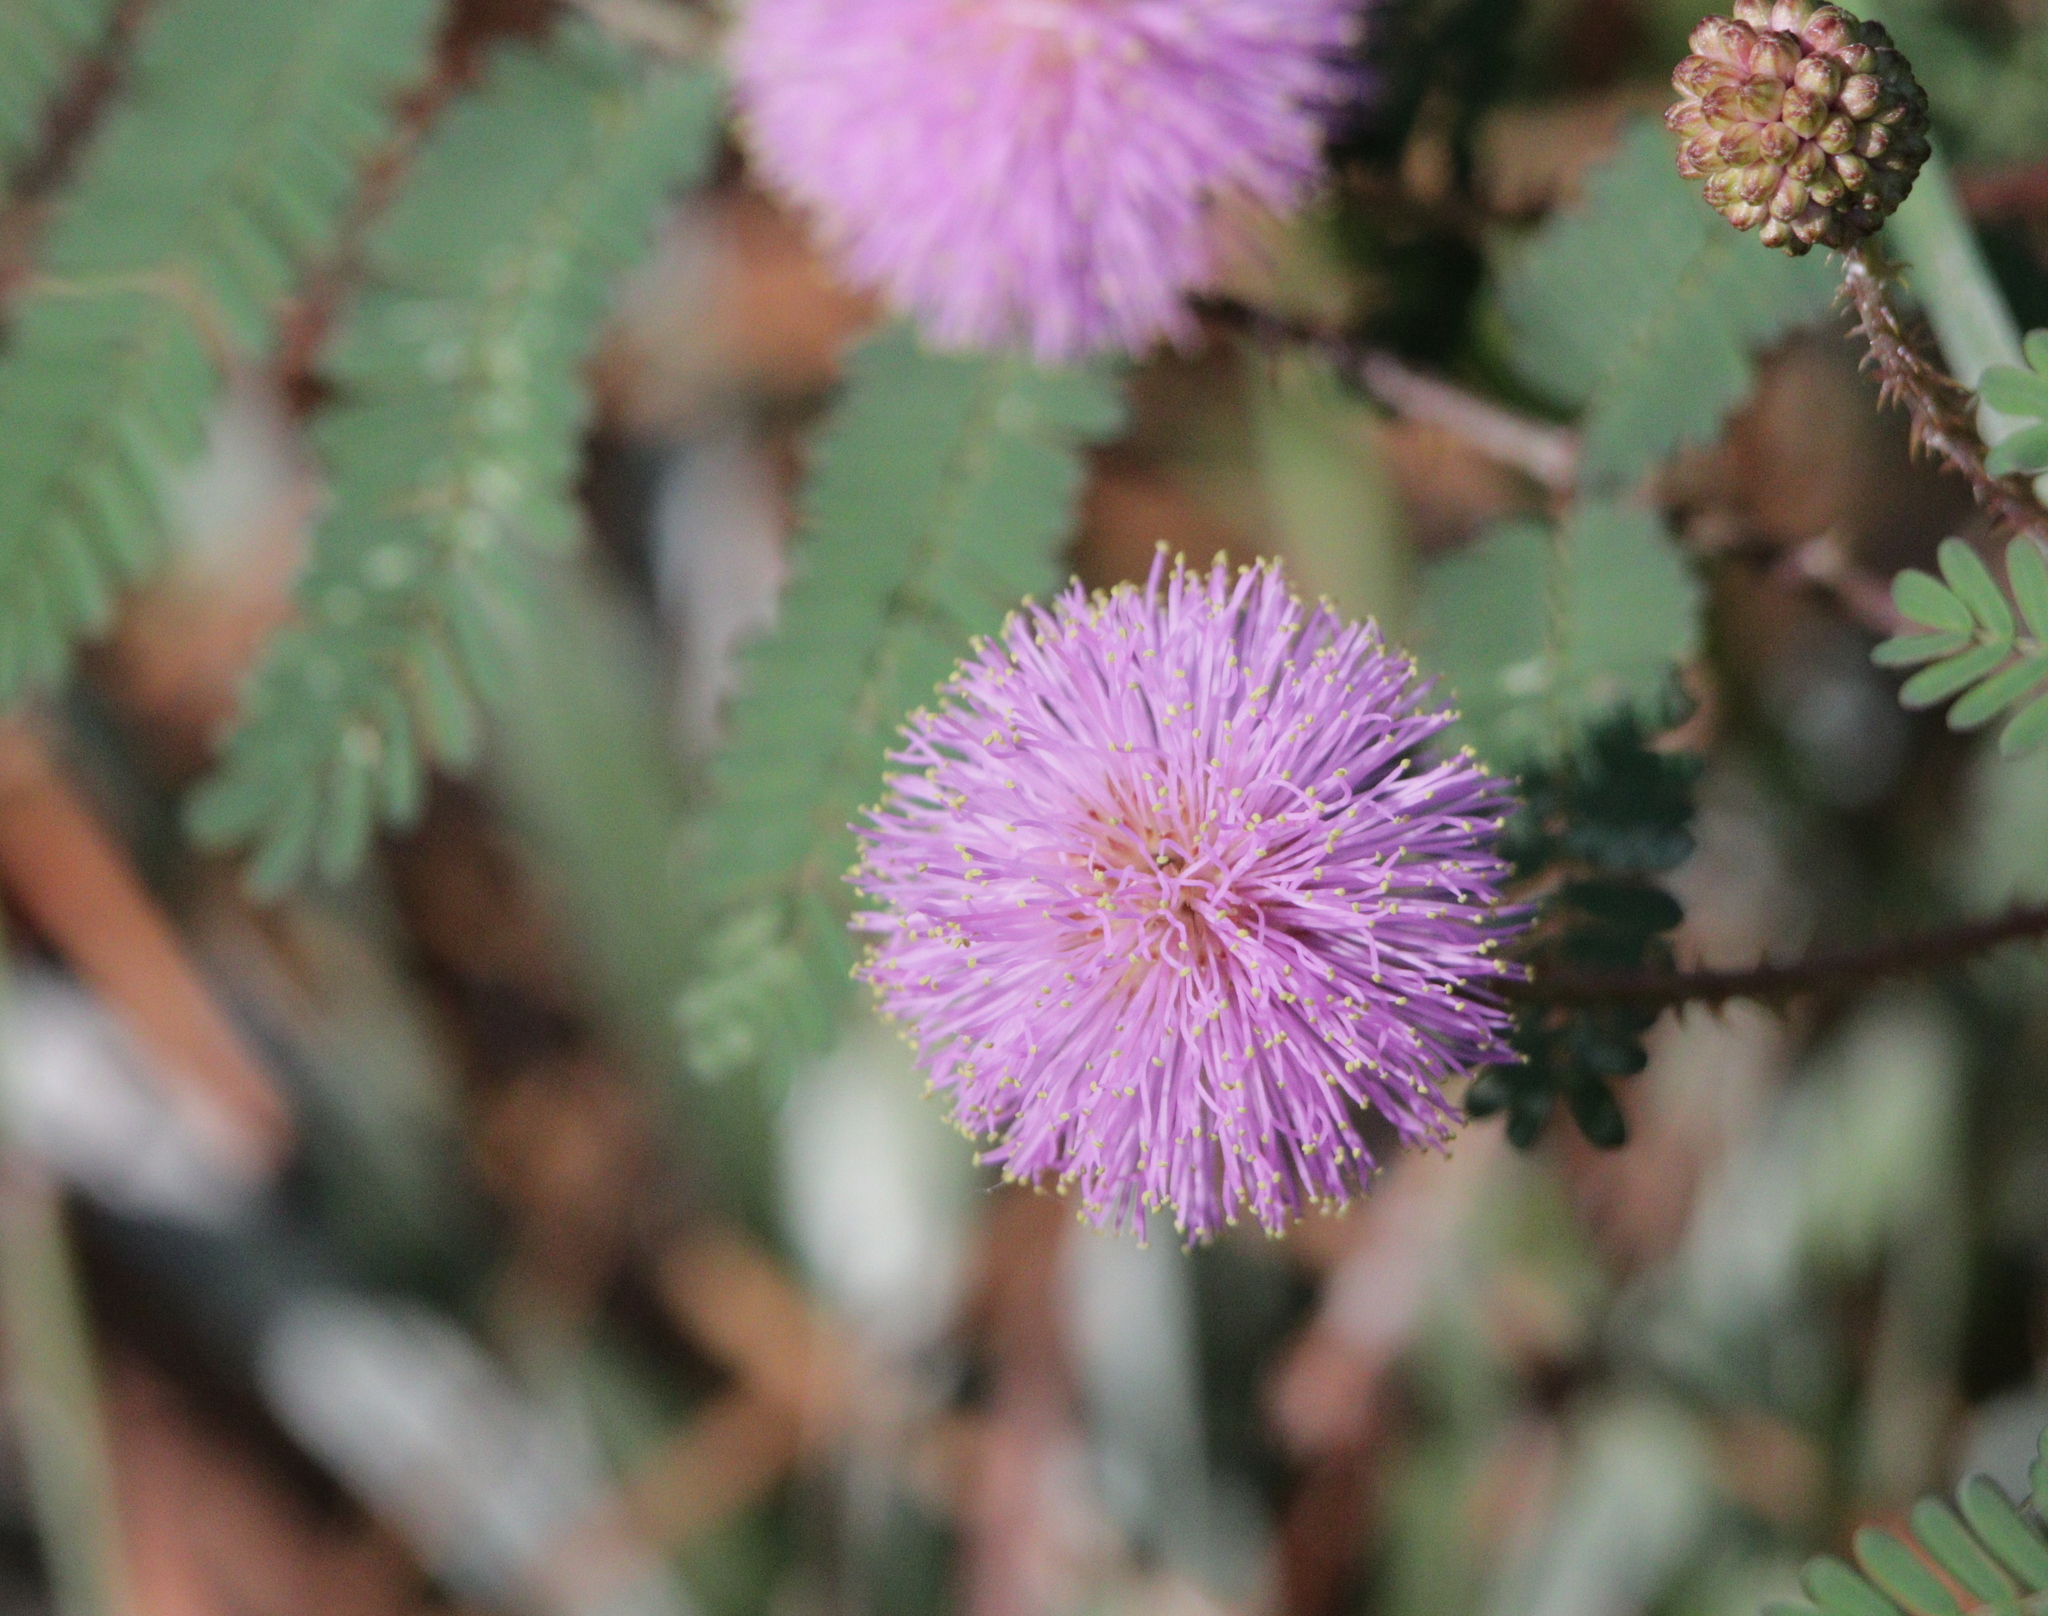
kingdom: Plantae
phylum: Tracheophyta
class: Magnoliopsida
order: Fabales
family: Fabaceae
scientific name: Fabaceae
